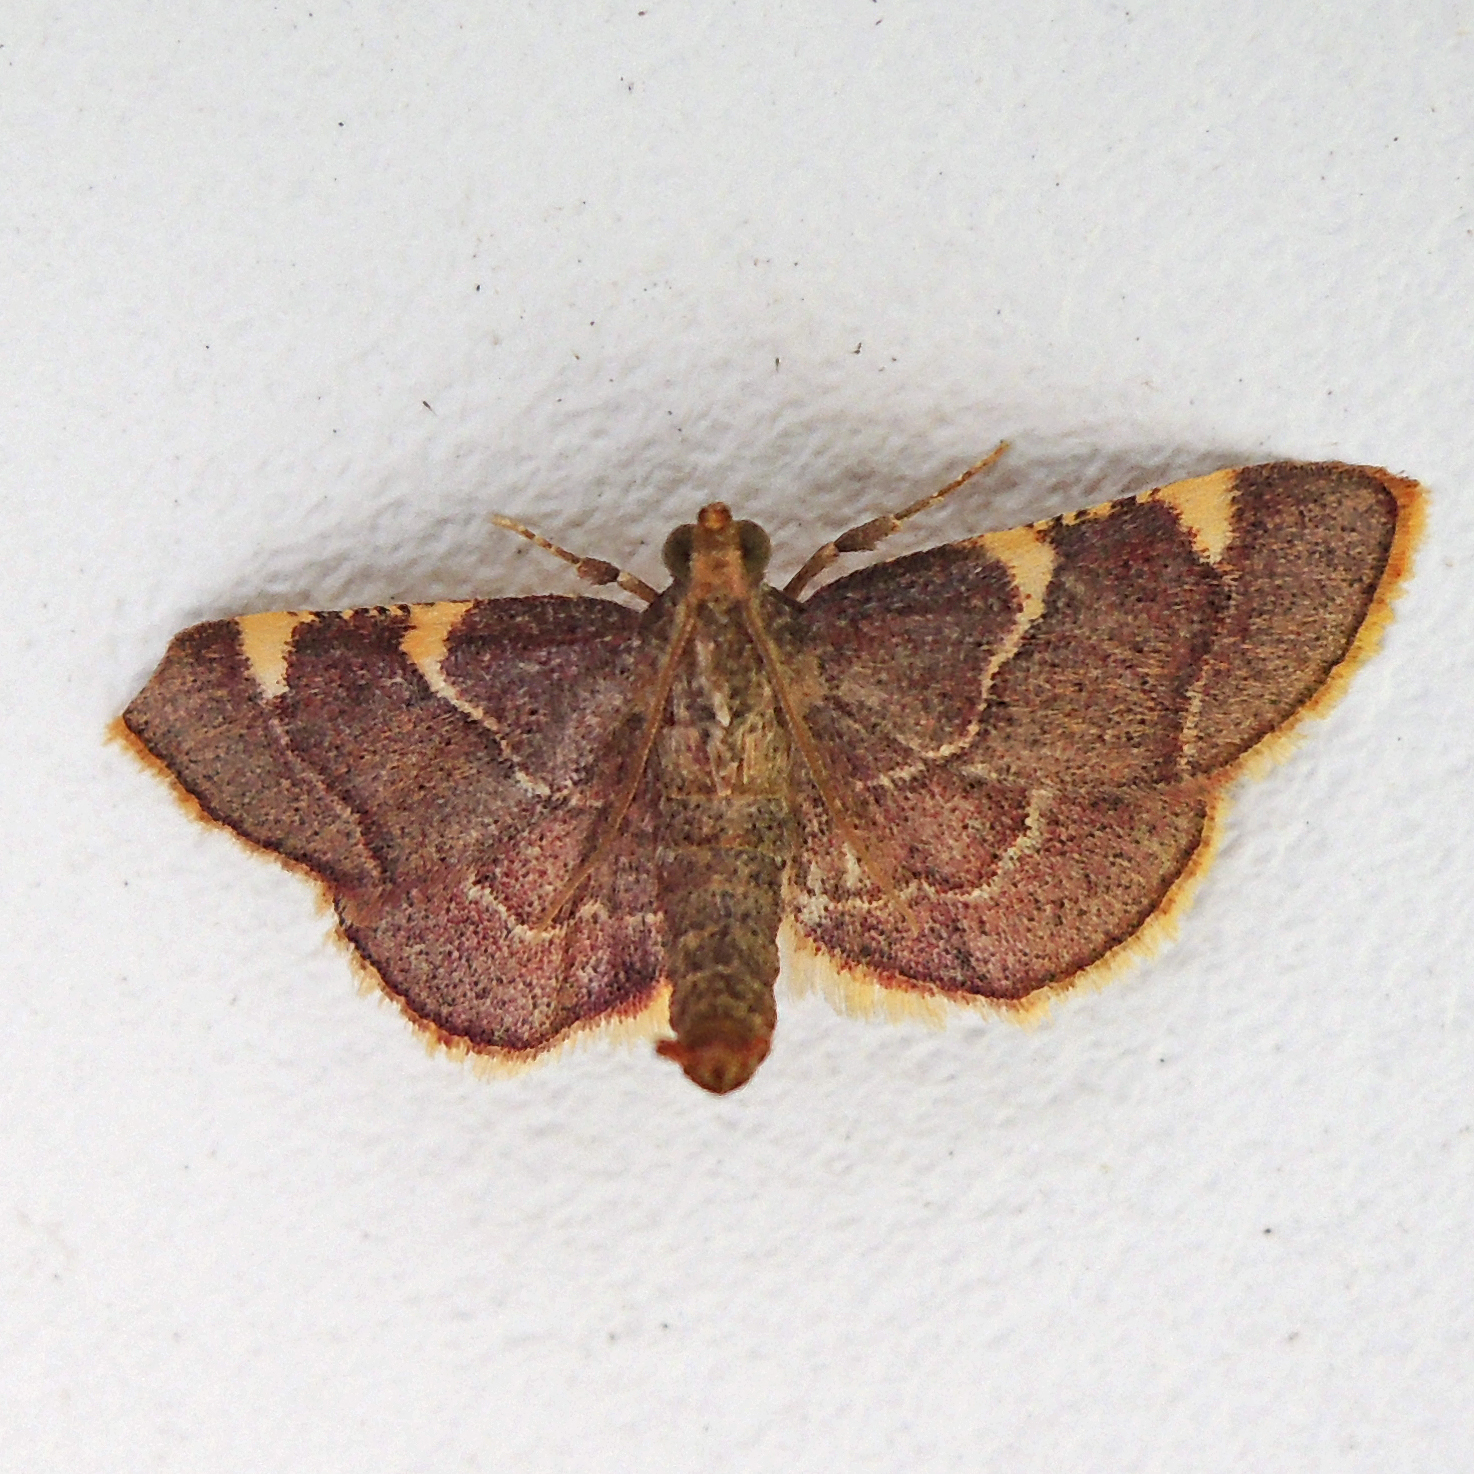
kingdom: Animalia
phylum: Arthropoda
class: Insecta
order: Lepidoptera
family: Pyralidae
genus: Hypsopygia
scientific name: Hypsopygia olinalis
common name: Yellow-fringed dolichomia moth
